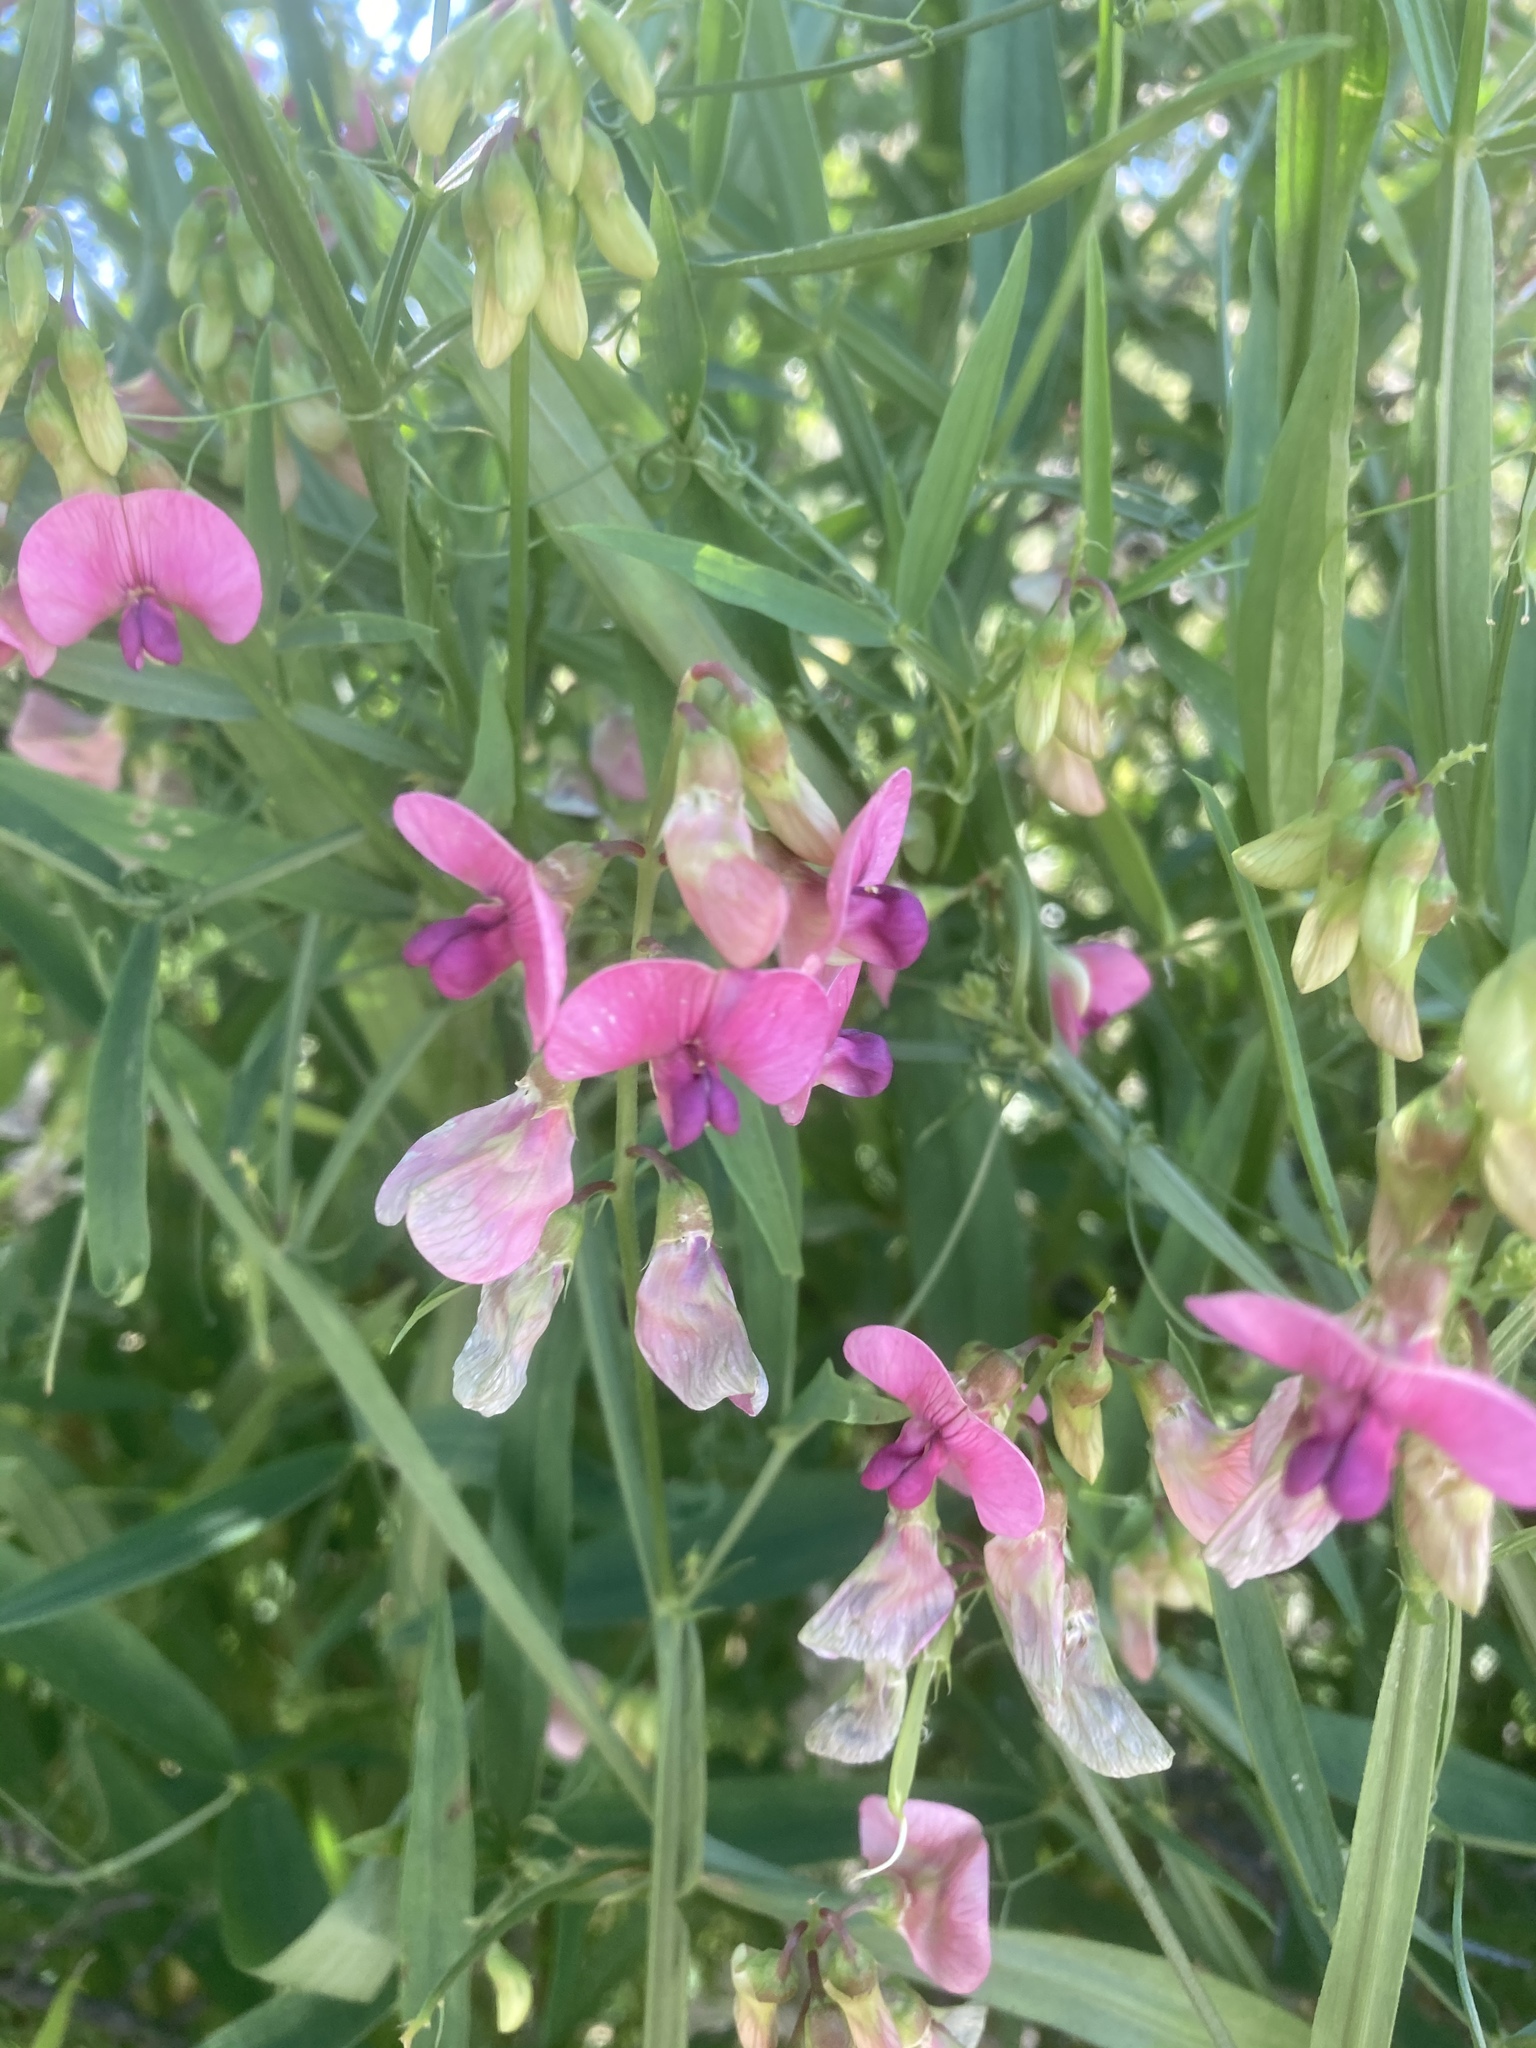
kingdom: Plantae
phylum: Tracheophyta
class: Magnoliopsida
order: Fabales
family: Fabaceae
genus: Lathyrus
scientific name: Lathyrus sylvestris
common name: Flat pea
